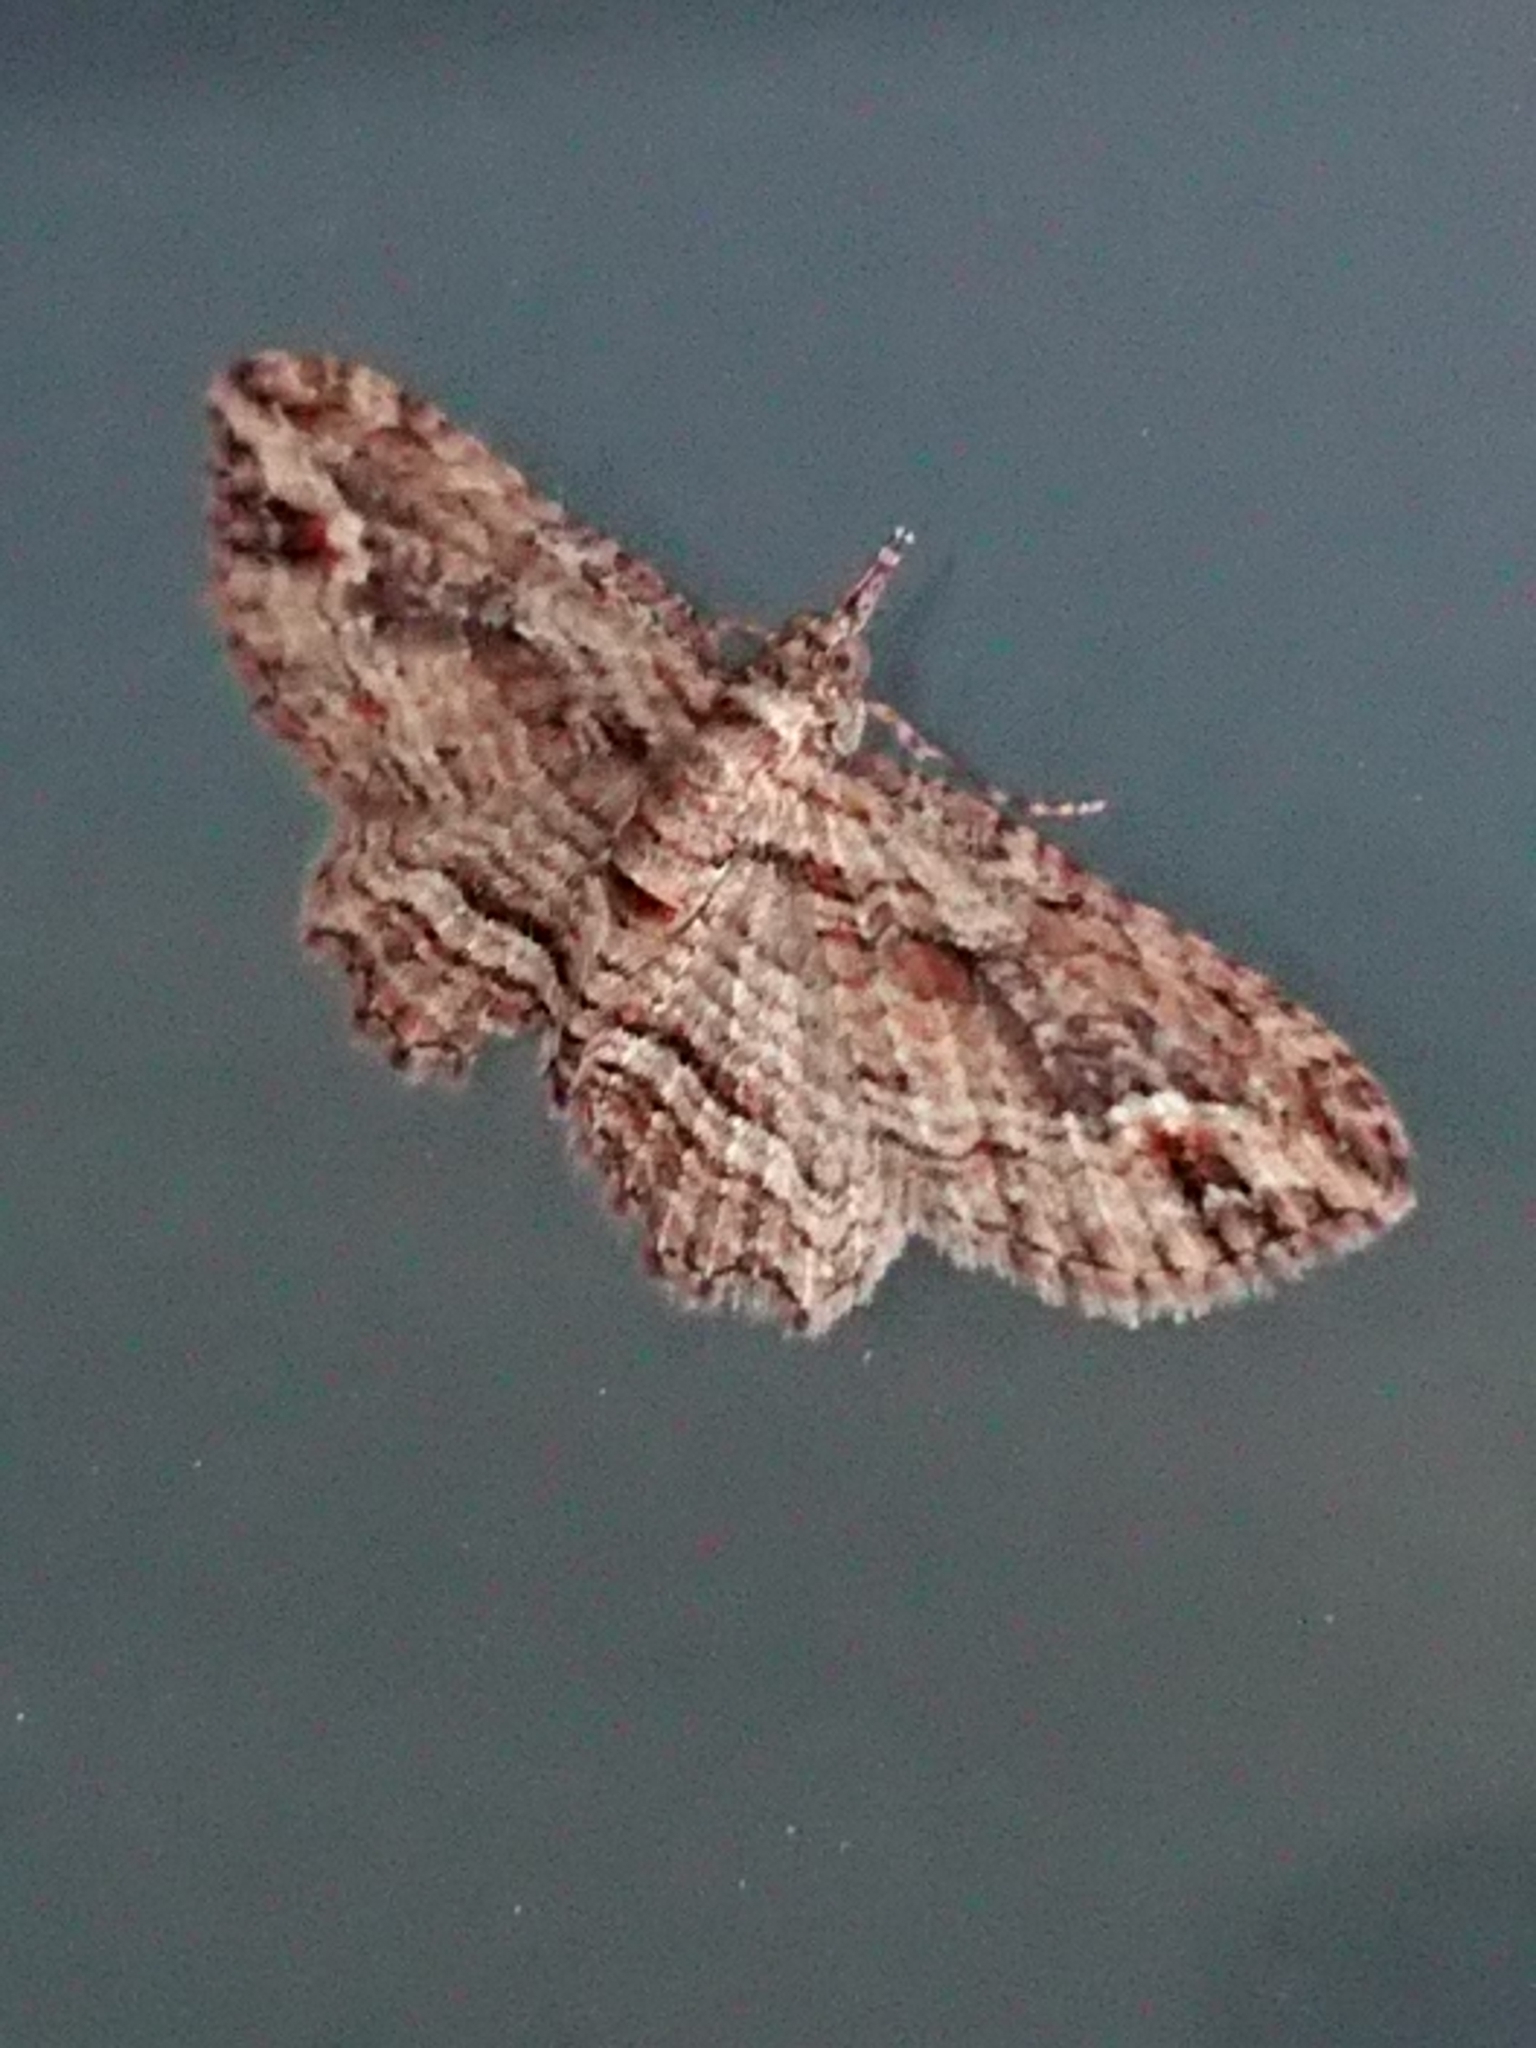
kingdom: Animalia
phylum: Arthropoda
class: Insecta
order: Lepidoptera
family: Geometridae
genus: Chloroclystis
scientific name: Chloroclystis filata
